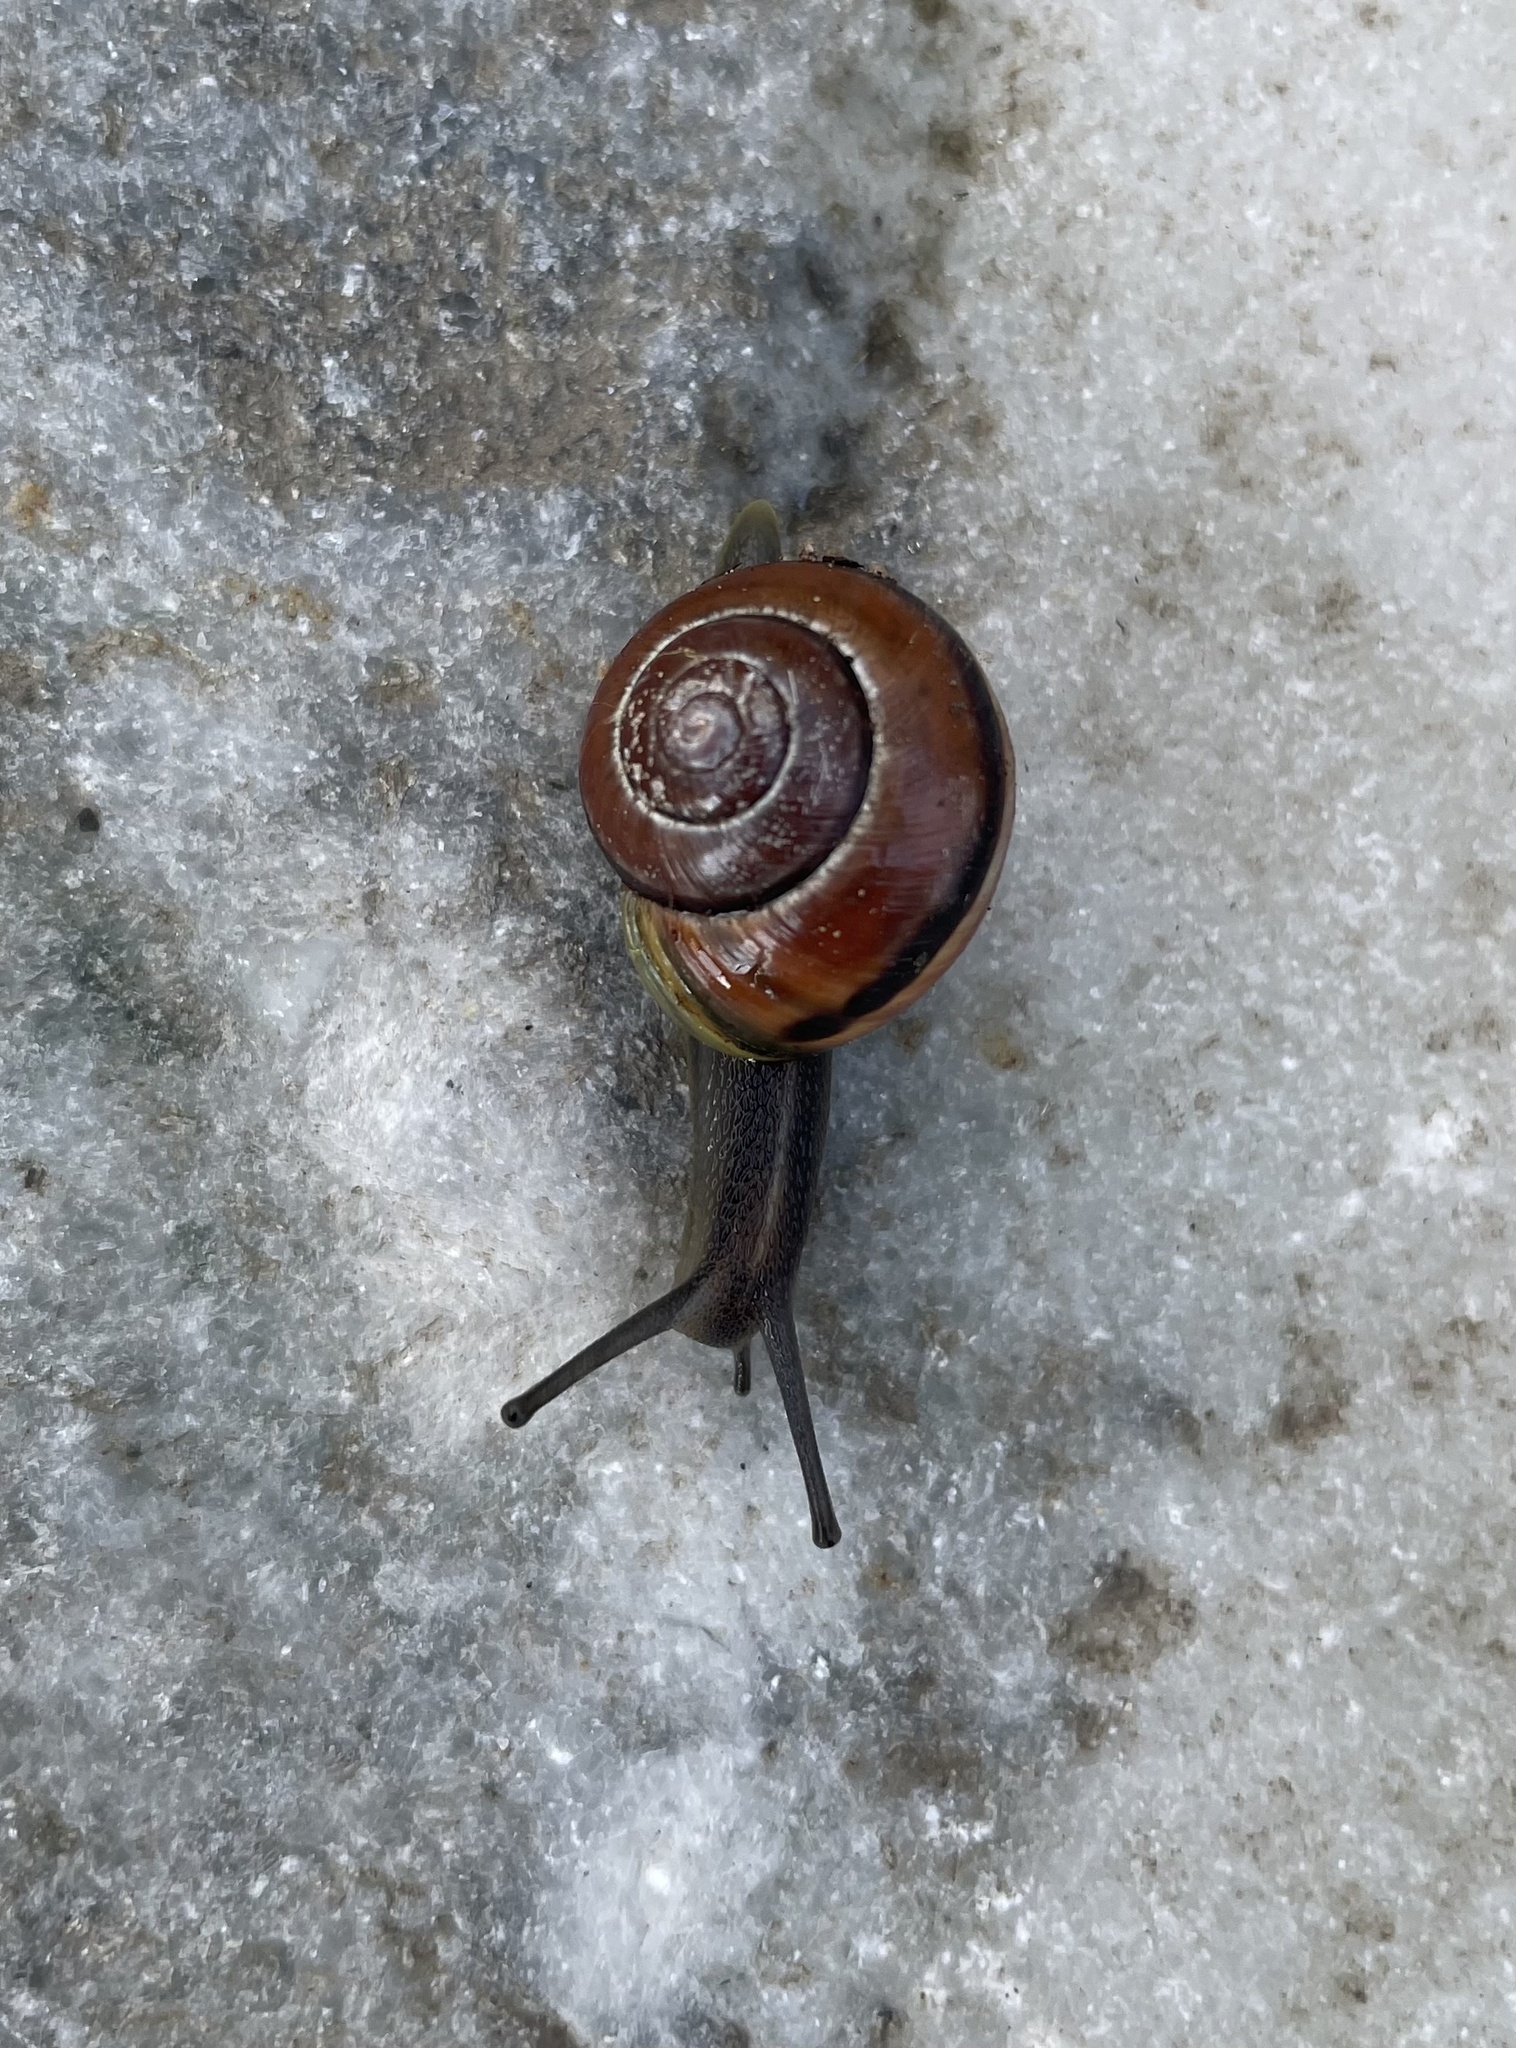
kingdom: Animalia
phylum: Mollusca
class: Gastropoda
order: Stylommatophora
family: Helicidae
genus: Cepaea
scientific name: Cepaea nemoralis
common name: Grovesnail
